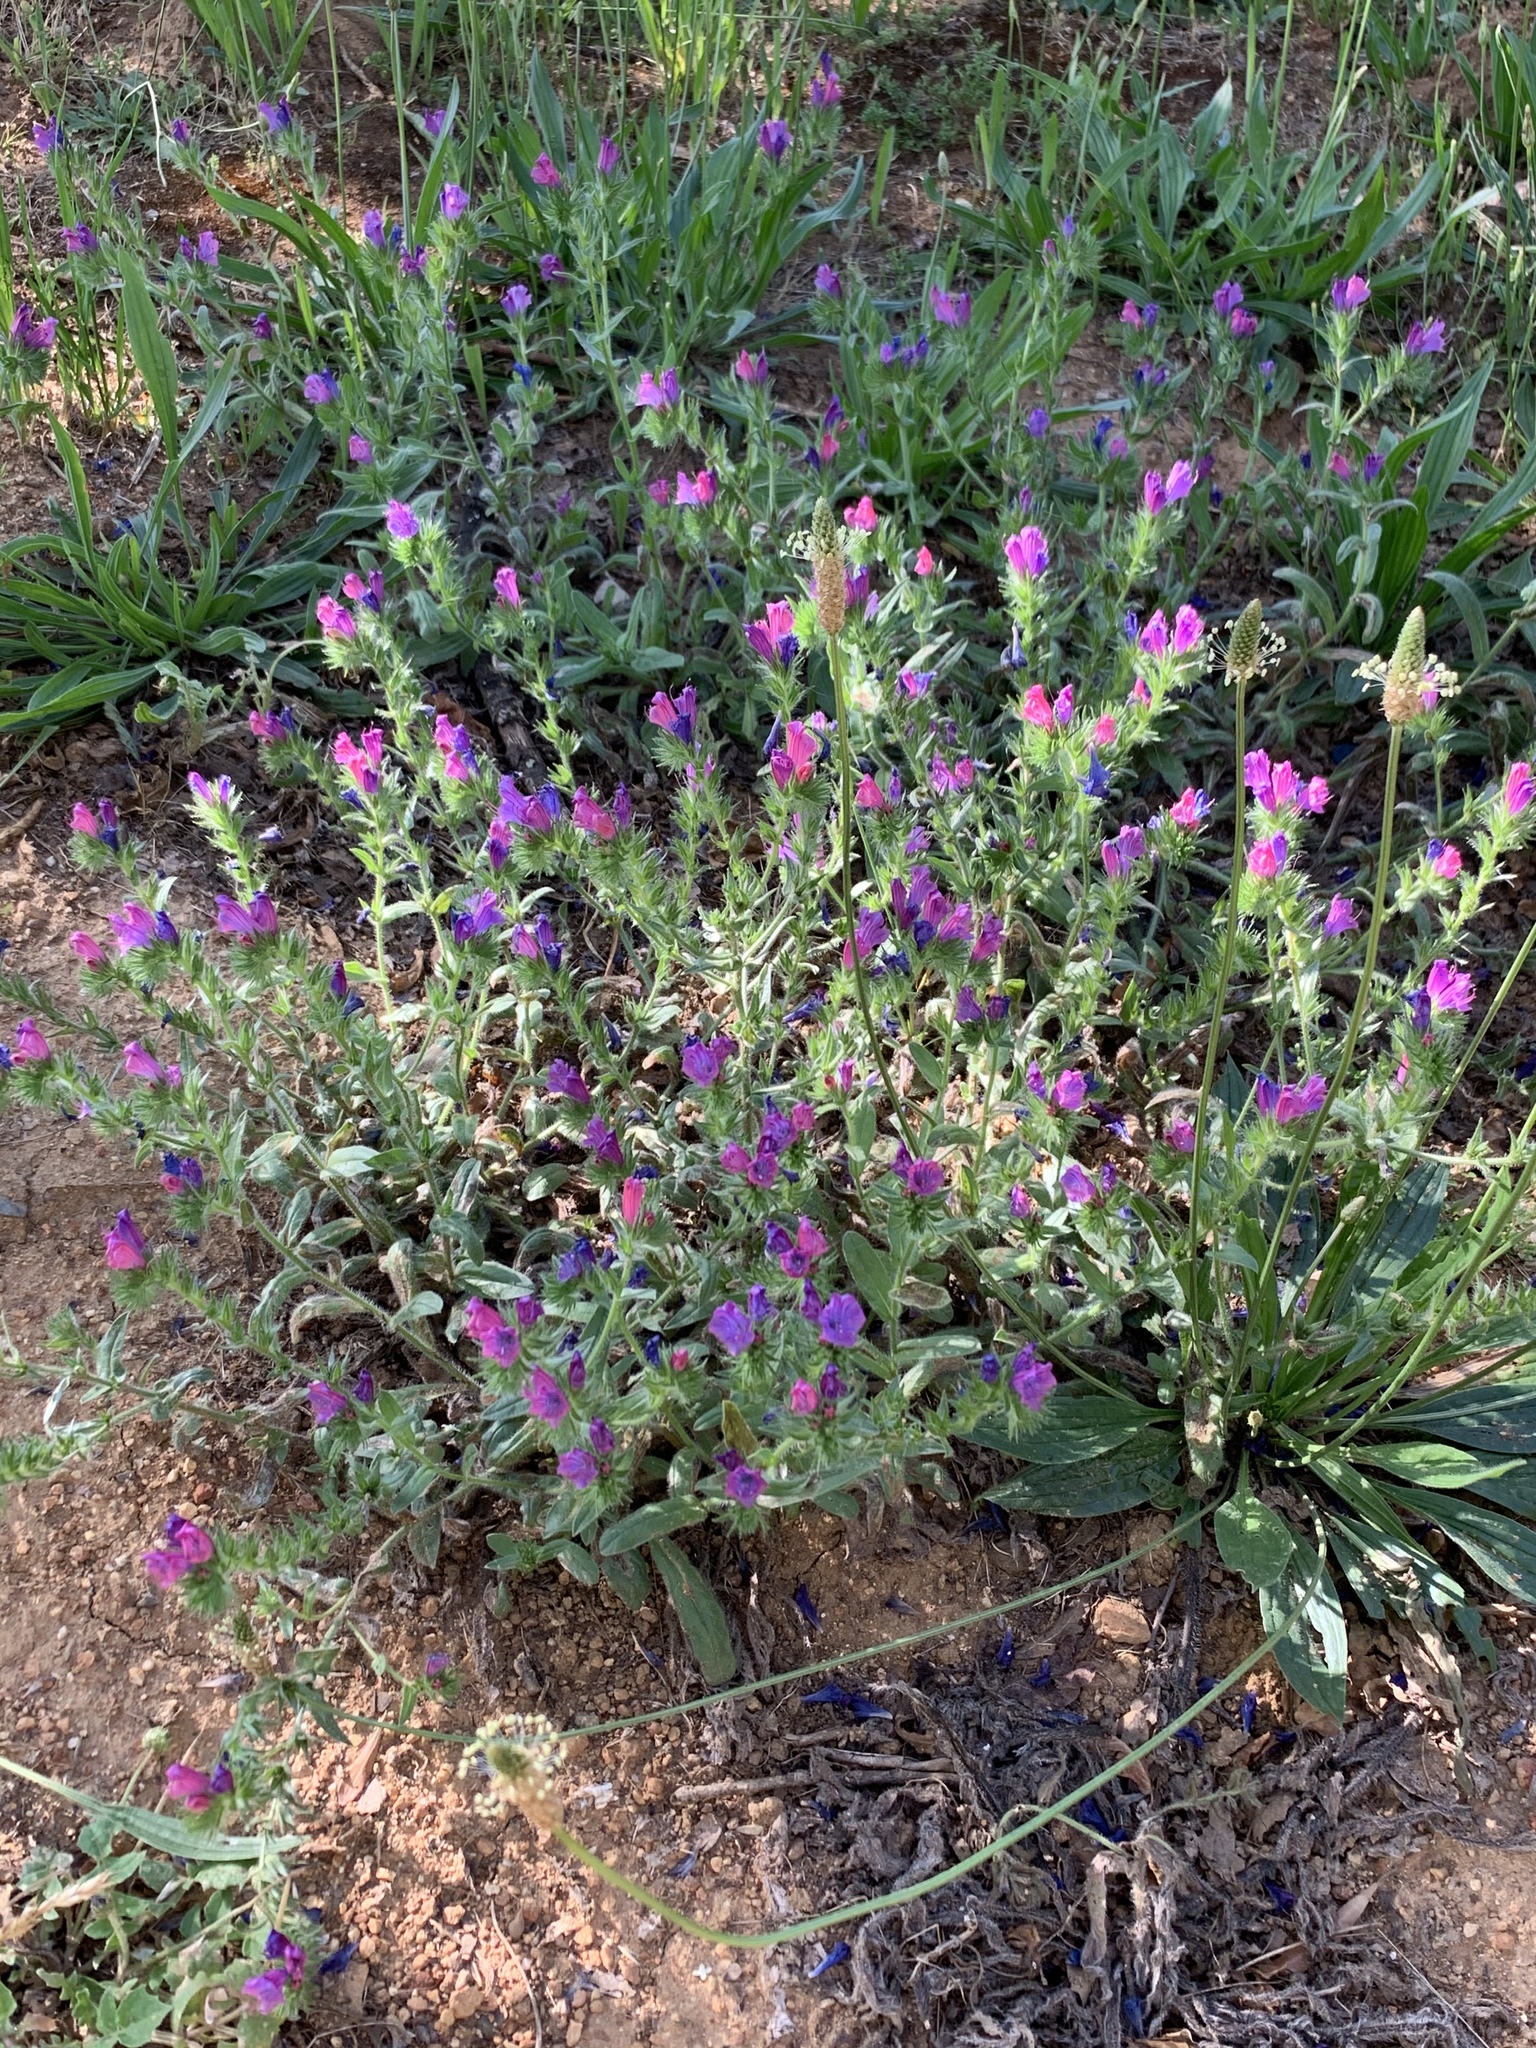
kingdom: Plantae
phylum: Tracheophyta
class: Magnoliopsida
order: Boraginales
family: Boraginaceae
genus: Echium
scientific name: Echium plantagineum
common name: Purple viper's-bugloss
